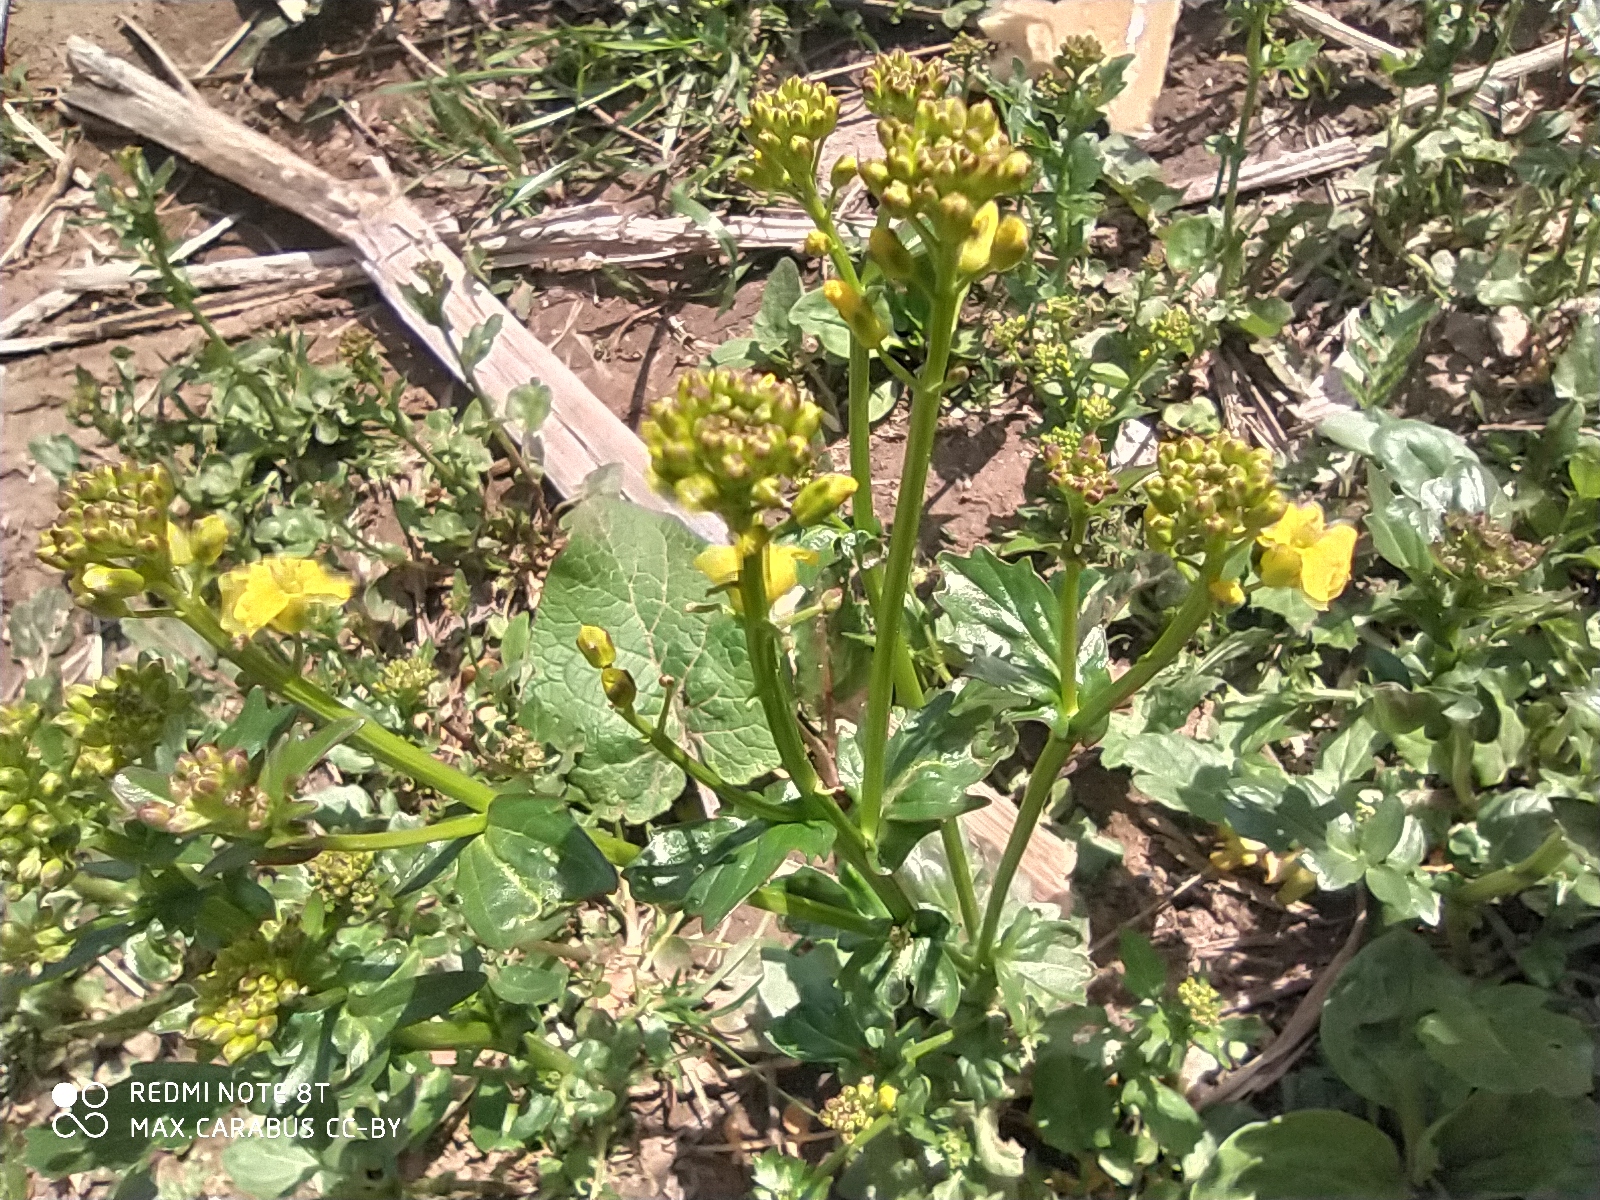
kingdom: Plantae
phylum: Tracheophyta
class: Magnoliopsida
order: Brassicales
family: Brassicaceae
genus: Barbarea
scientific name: Barbarea vulgaris
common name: Cressy-greens
